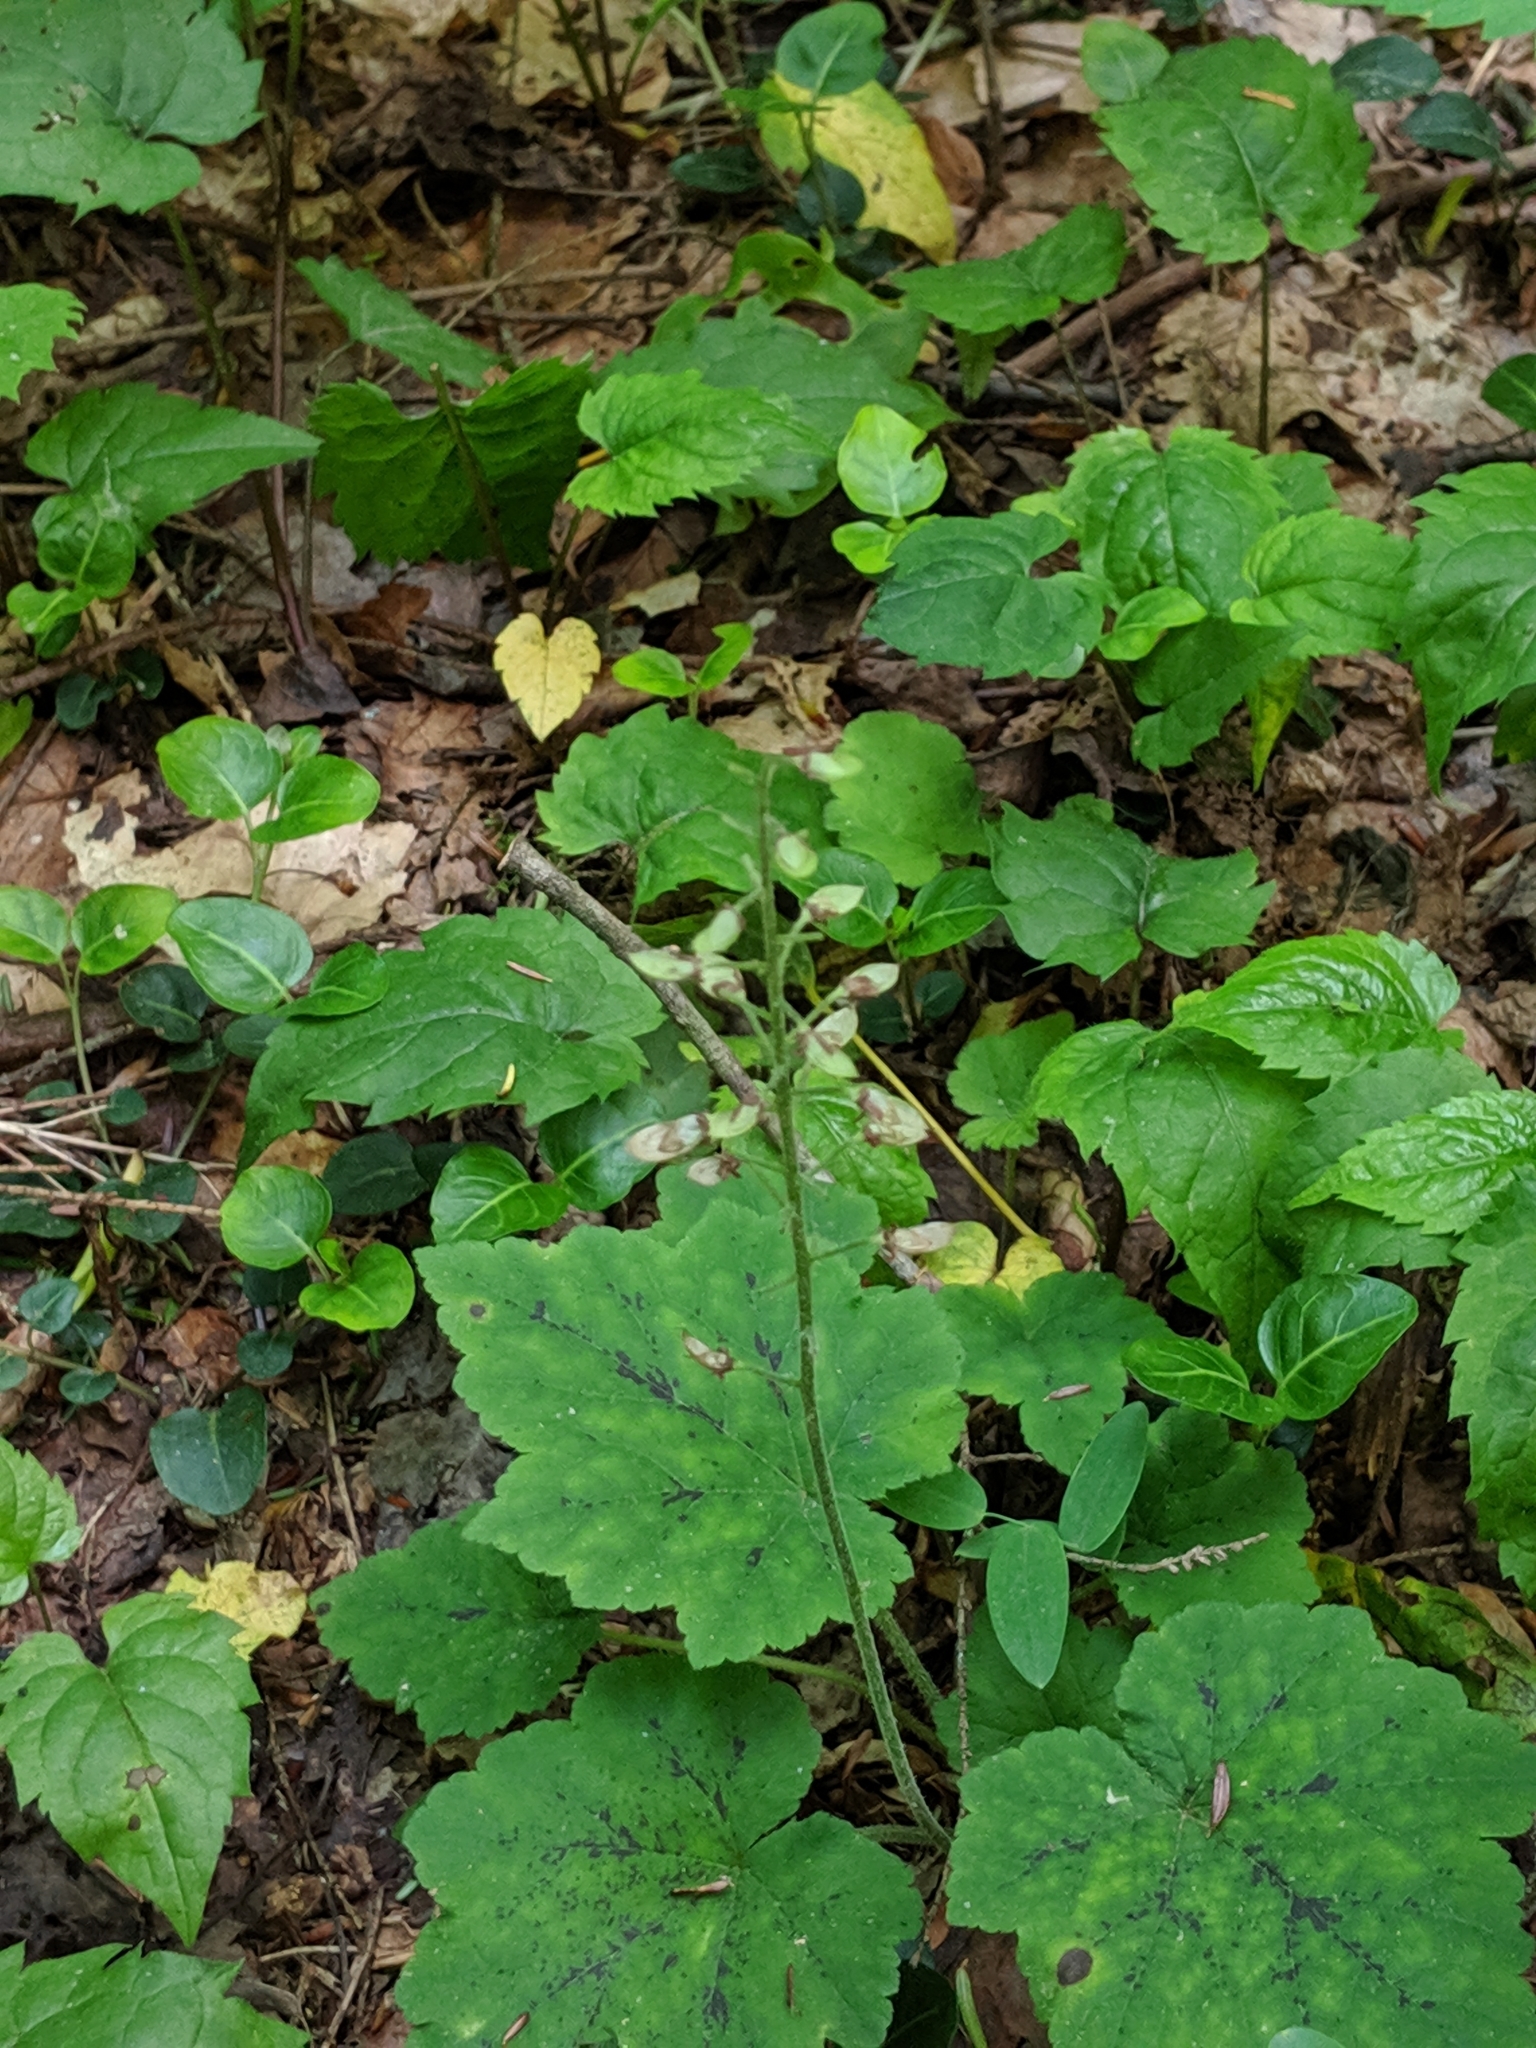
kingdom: Plantae
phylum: Tracheophyta
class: Magnoliopsida
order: Saxifragales
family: Saxifragaceae
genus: Tiarella
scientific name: Tiarella stolonifera
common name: Stoloniferous foamflower
